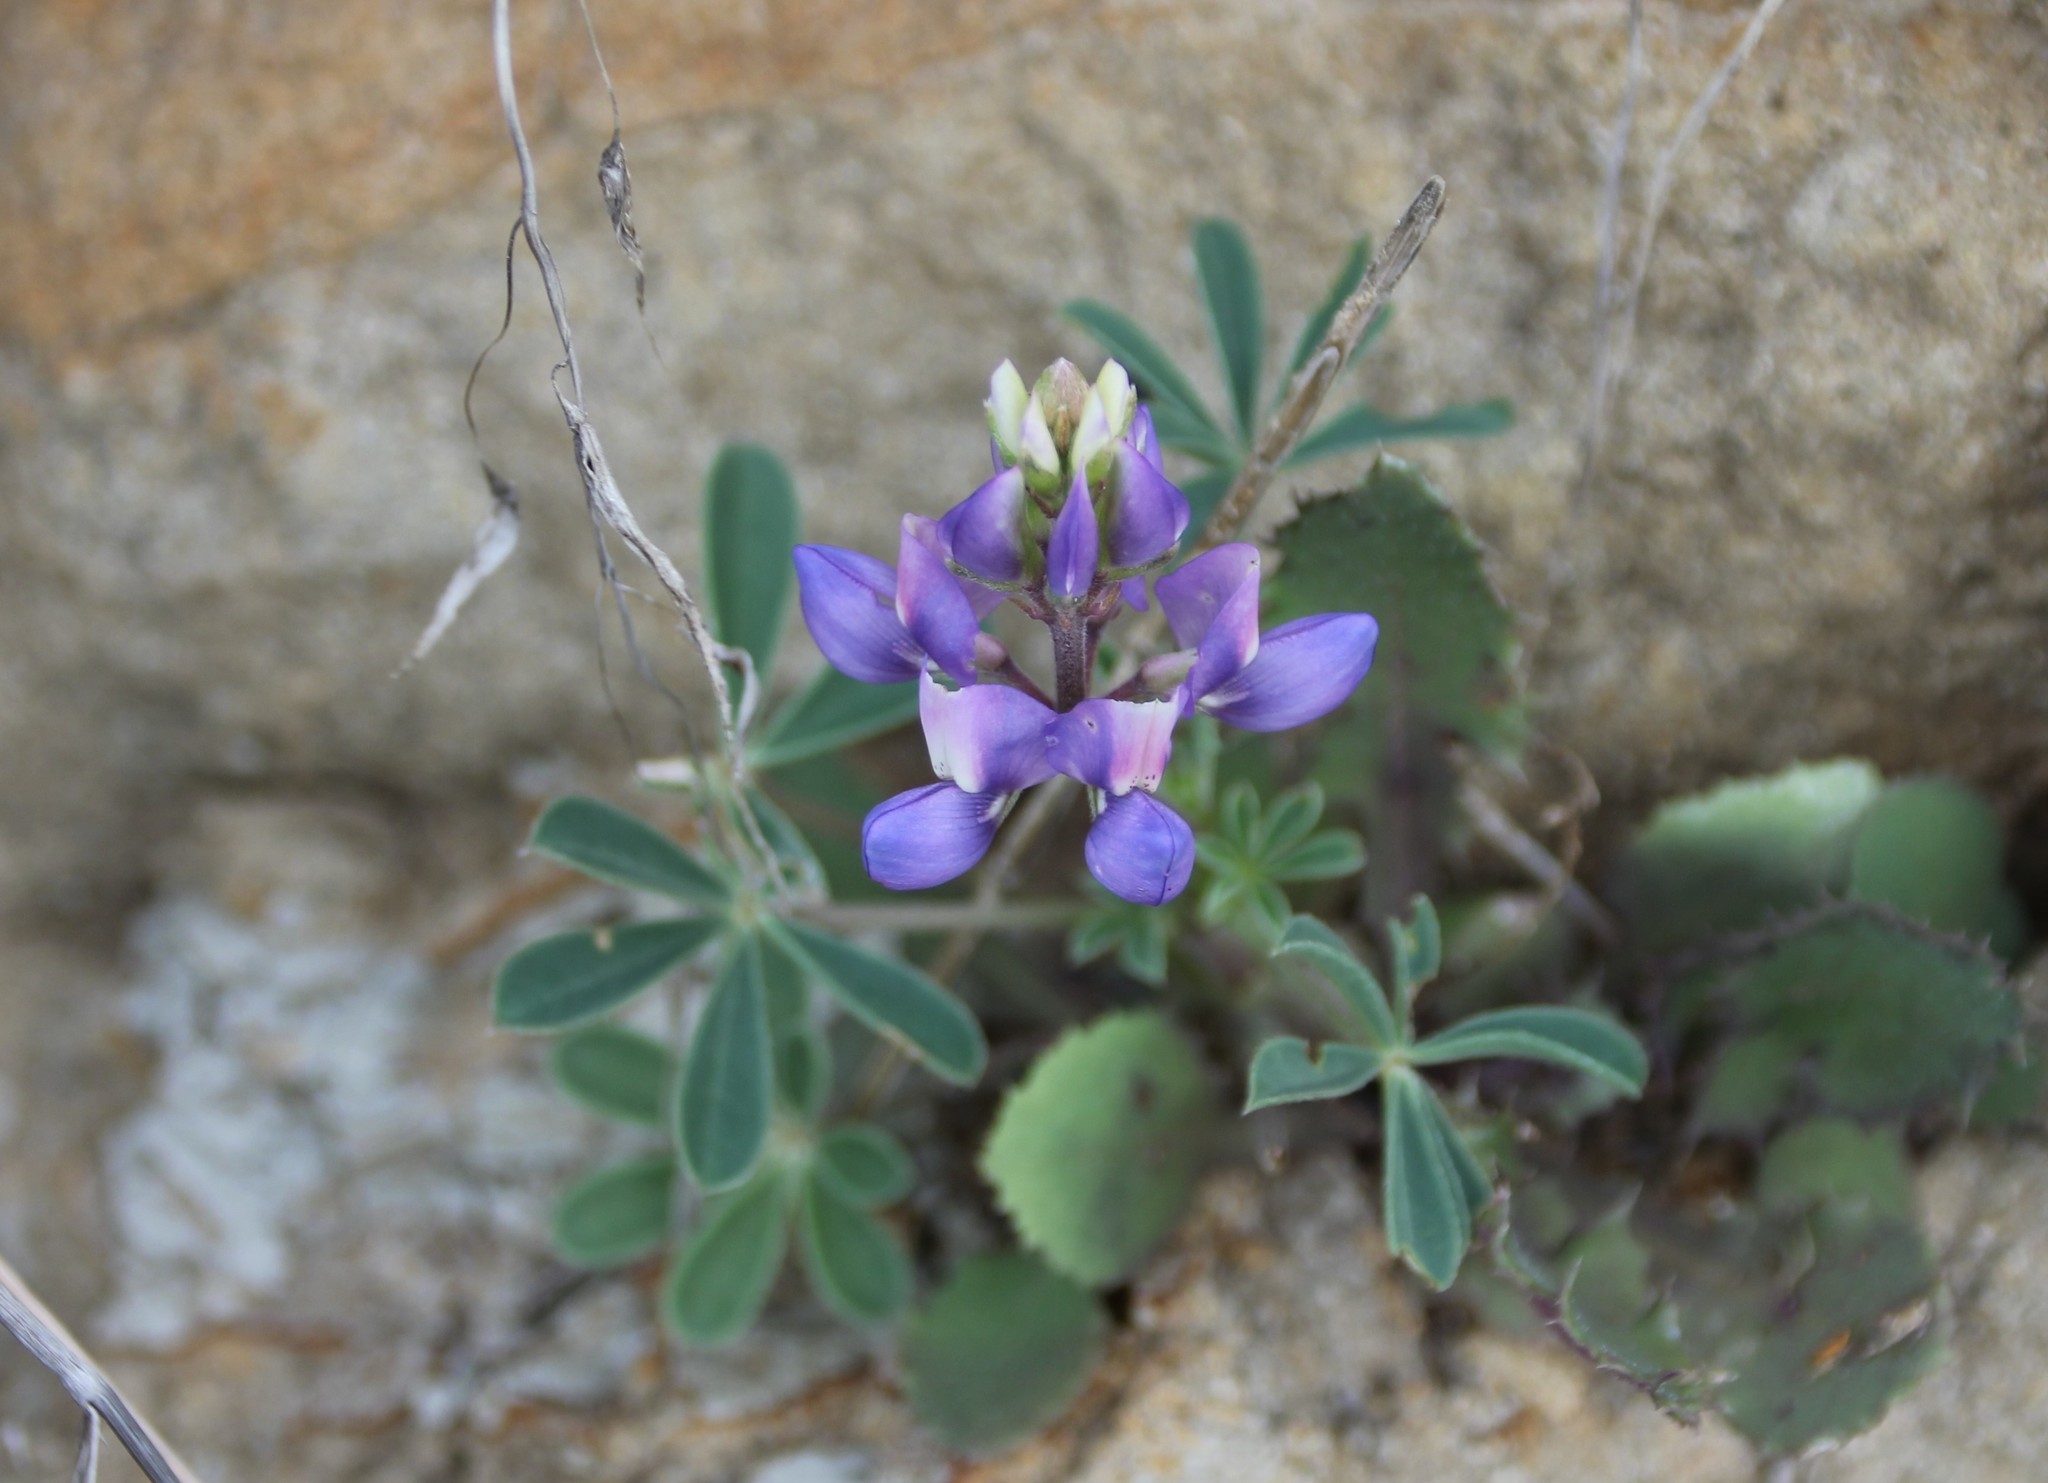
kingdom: Plantae
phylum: Tracheophyta
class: Magnoliopsida
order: Fabales
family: Fabaceae
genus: Lupinus
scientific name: Lupinus succulentus
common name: Arroyo lupine
